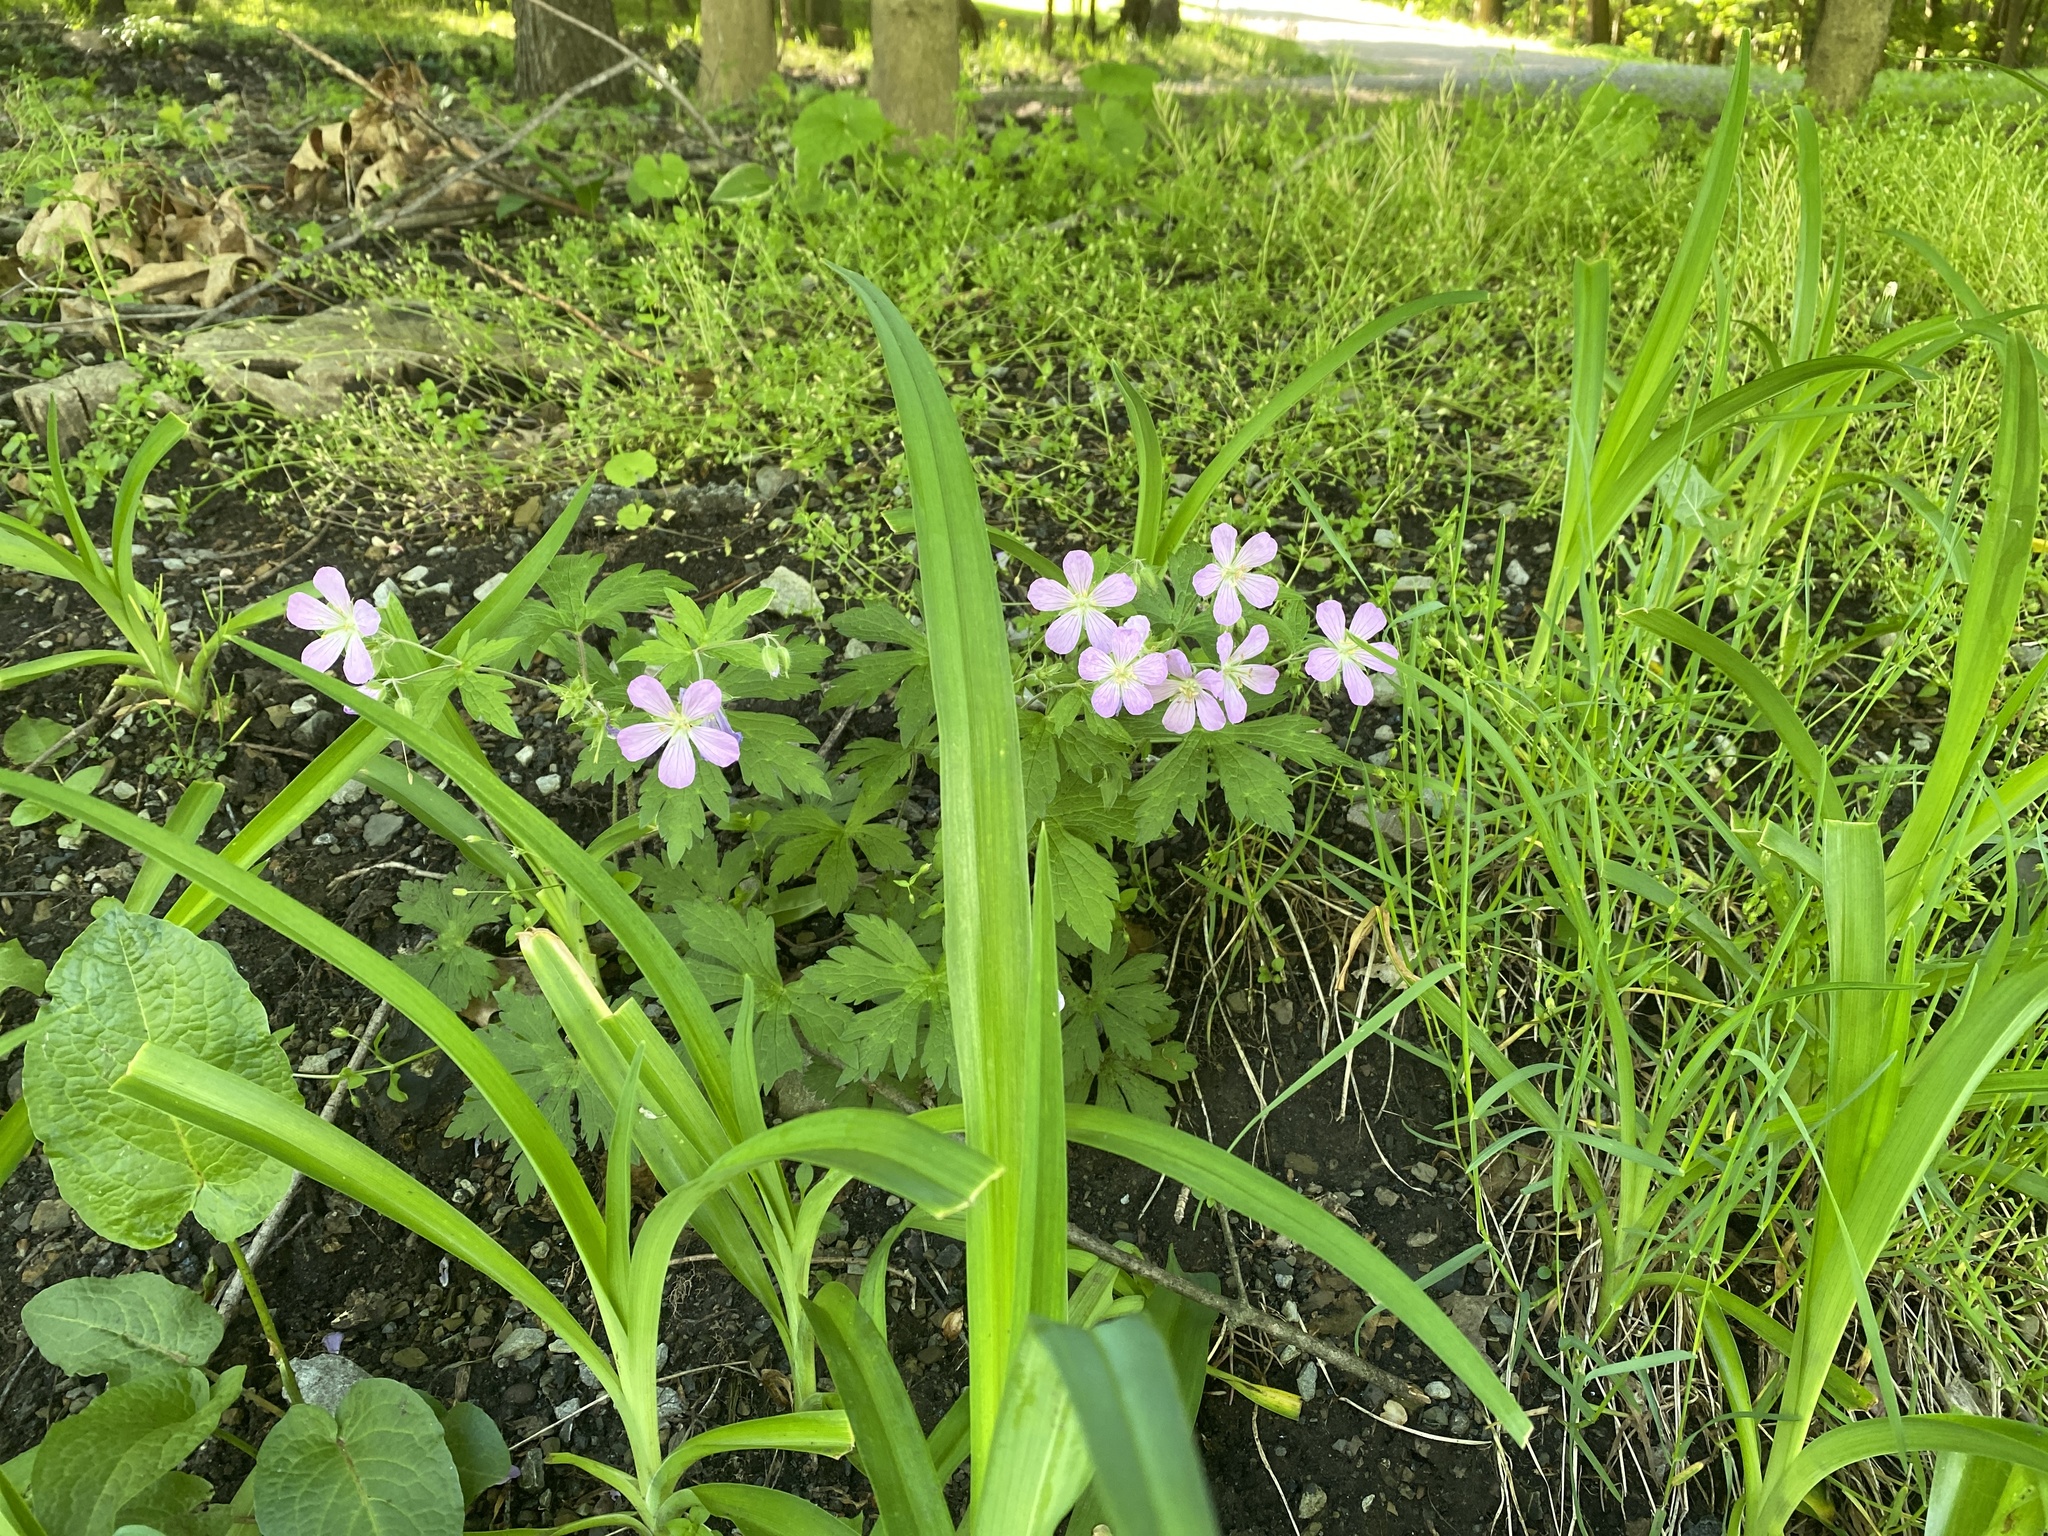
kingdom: Plantae
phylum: Tracheophyta
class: Magnoliopsida
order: Geraniales
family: Geraniaceae
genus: Geranium
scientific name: Geranium maculatum
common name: Spotted geranium
